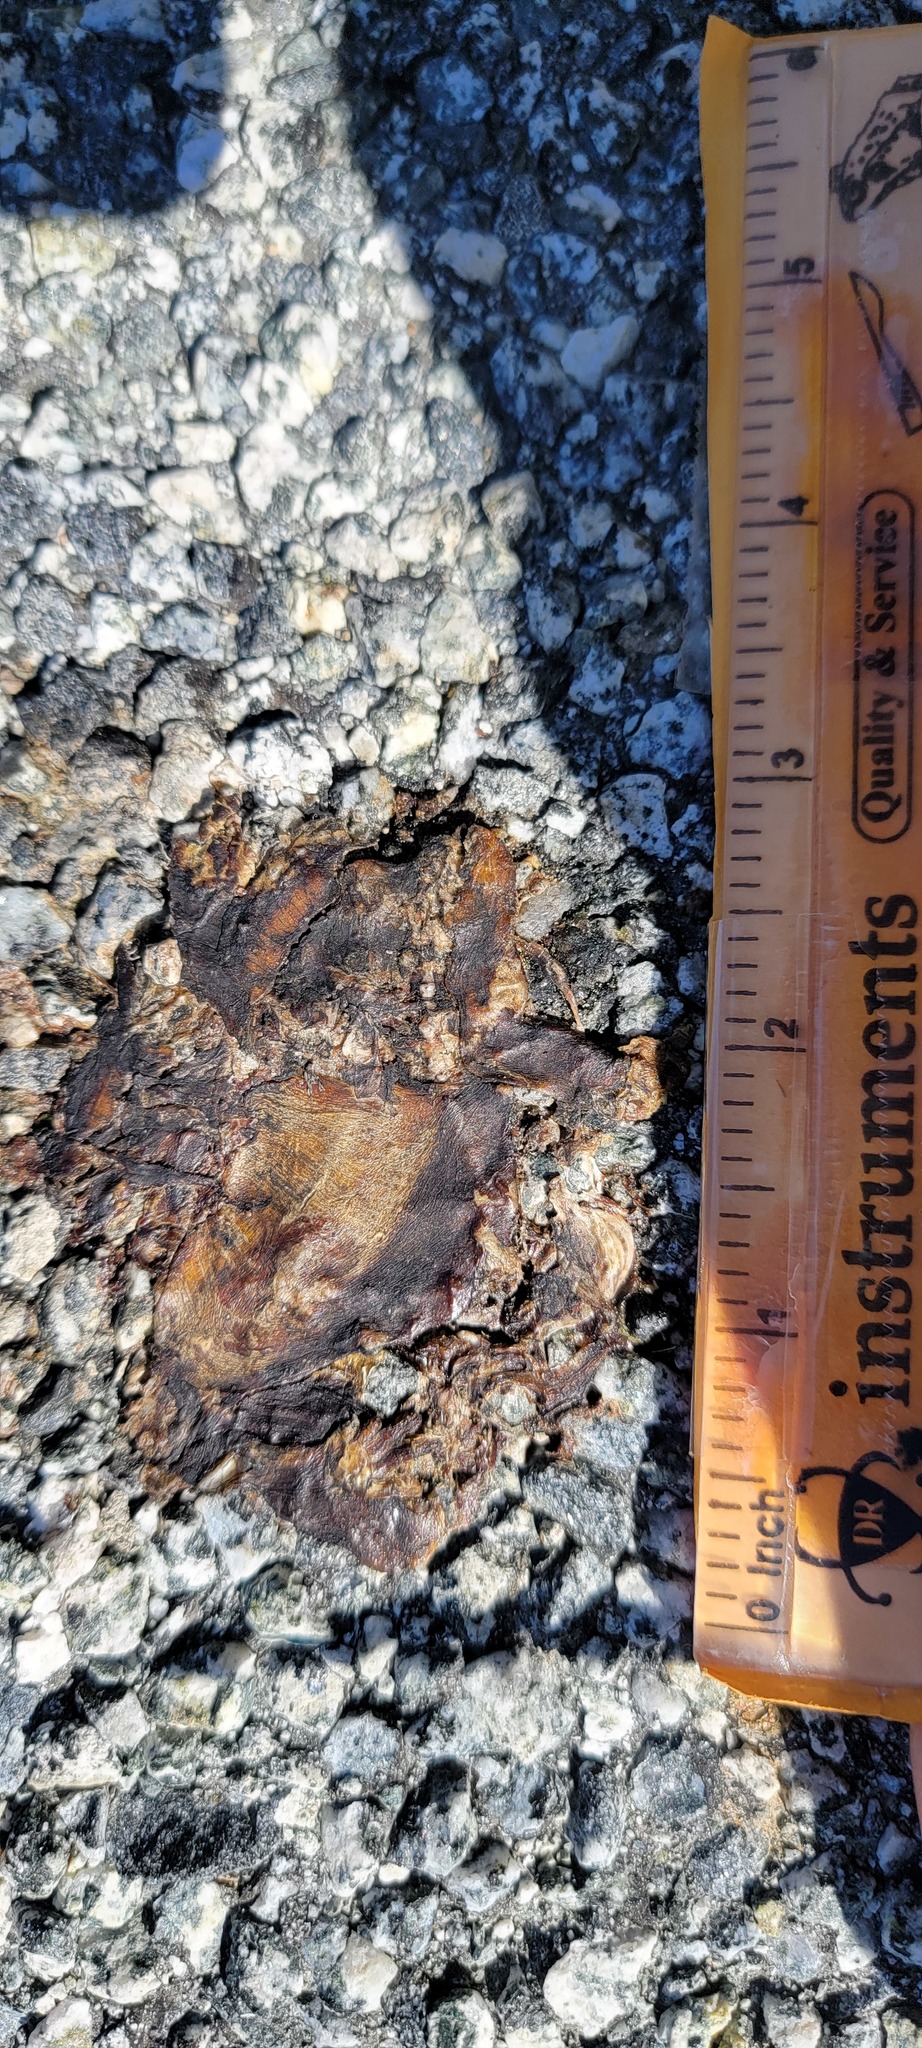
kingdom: Animalia
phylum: Chordata
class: Amphibia
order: Caudata
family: Salamandridae
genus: Taricha
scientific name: Taricha
